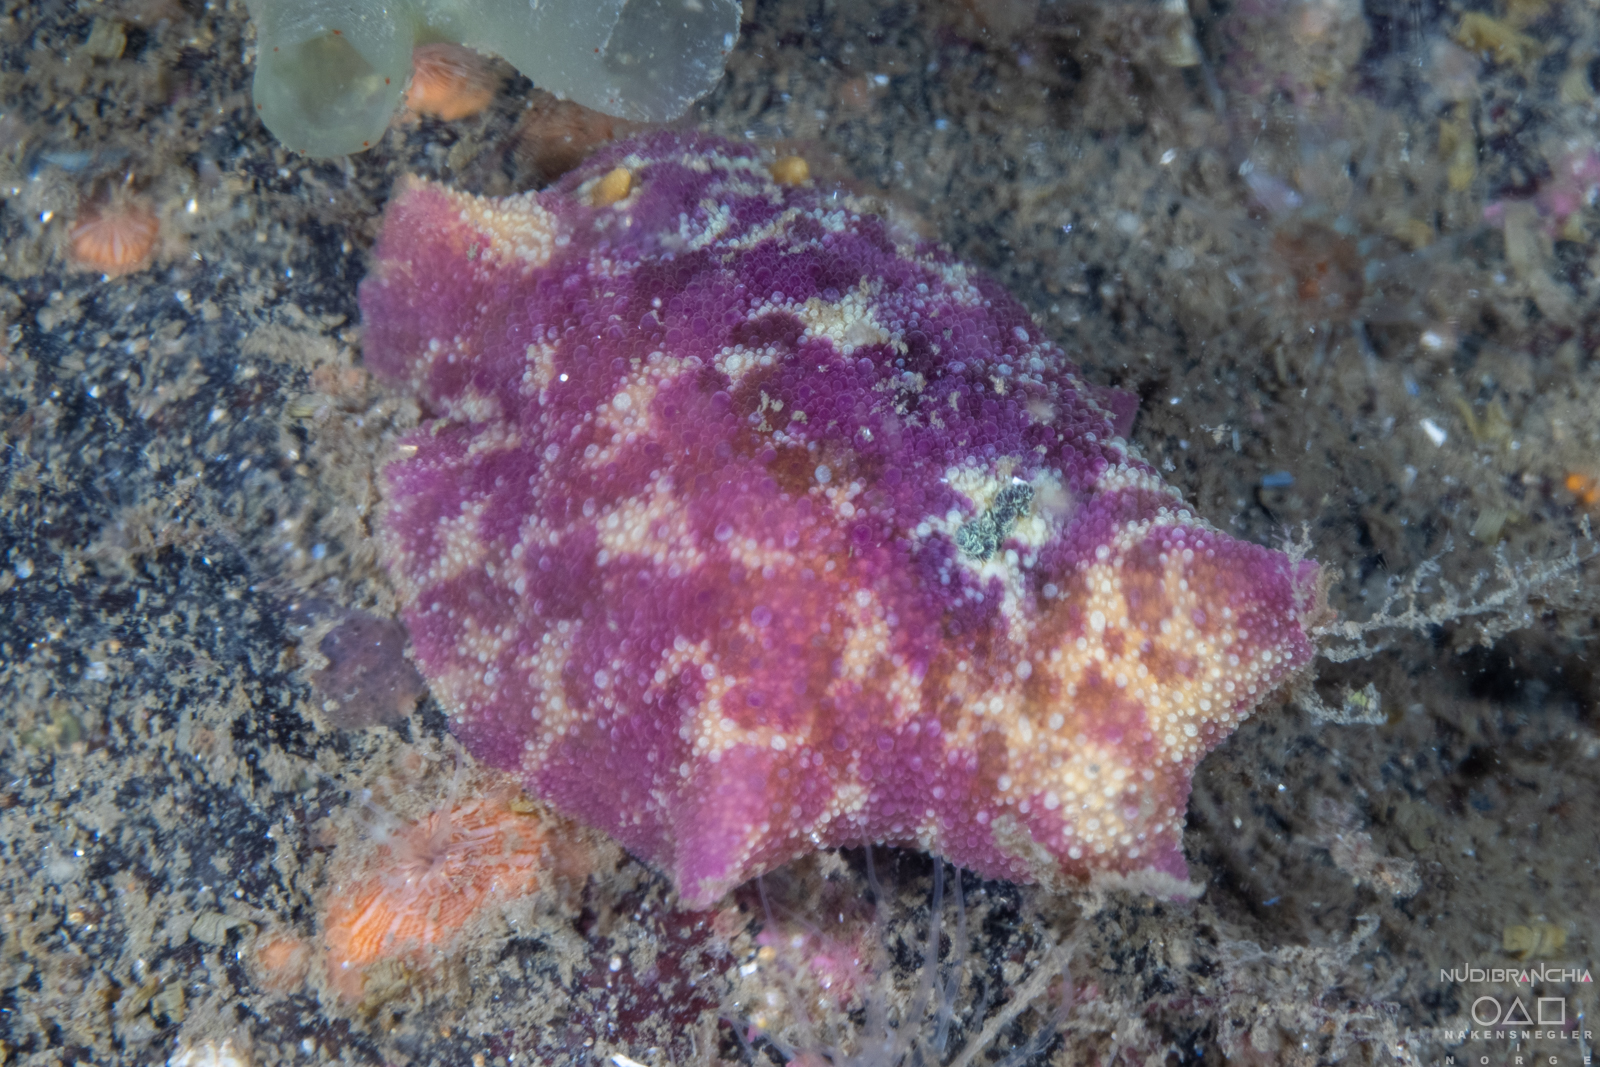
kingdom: Animalia
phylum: Mollusca
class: Gastropoda
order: Nudibranchia
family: Dorididae
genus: Doris
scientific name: Doris pseudoargus
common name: Sea lemon
